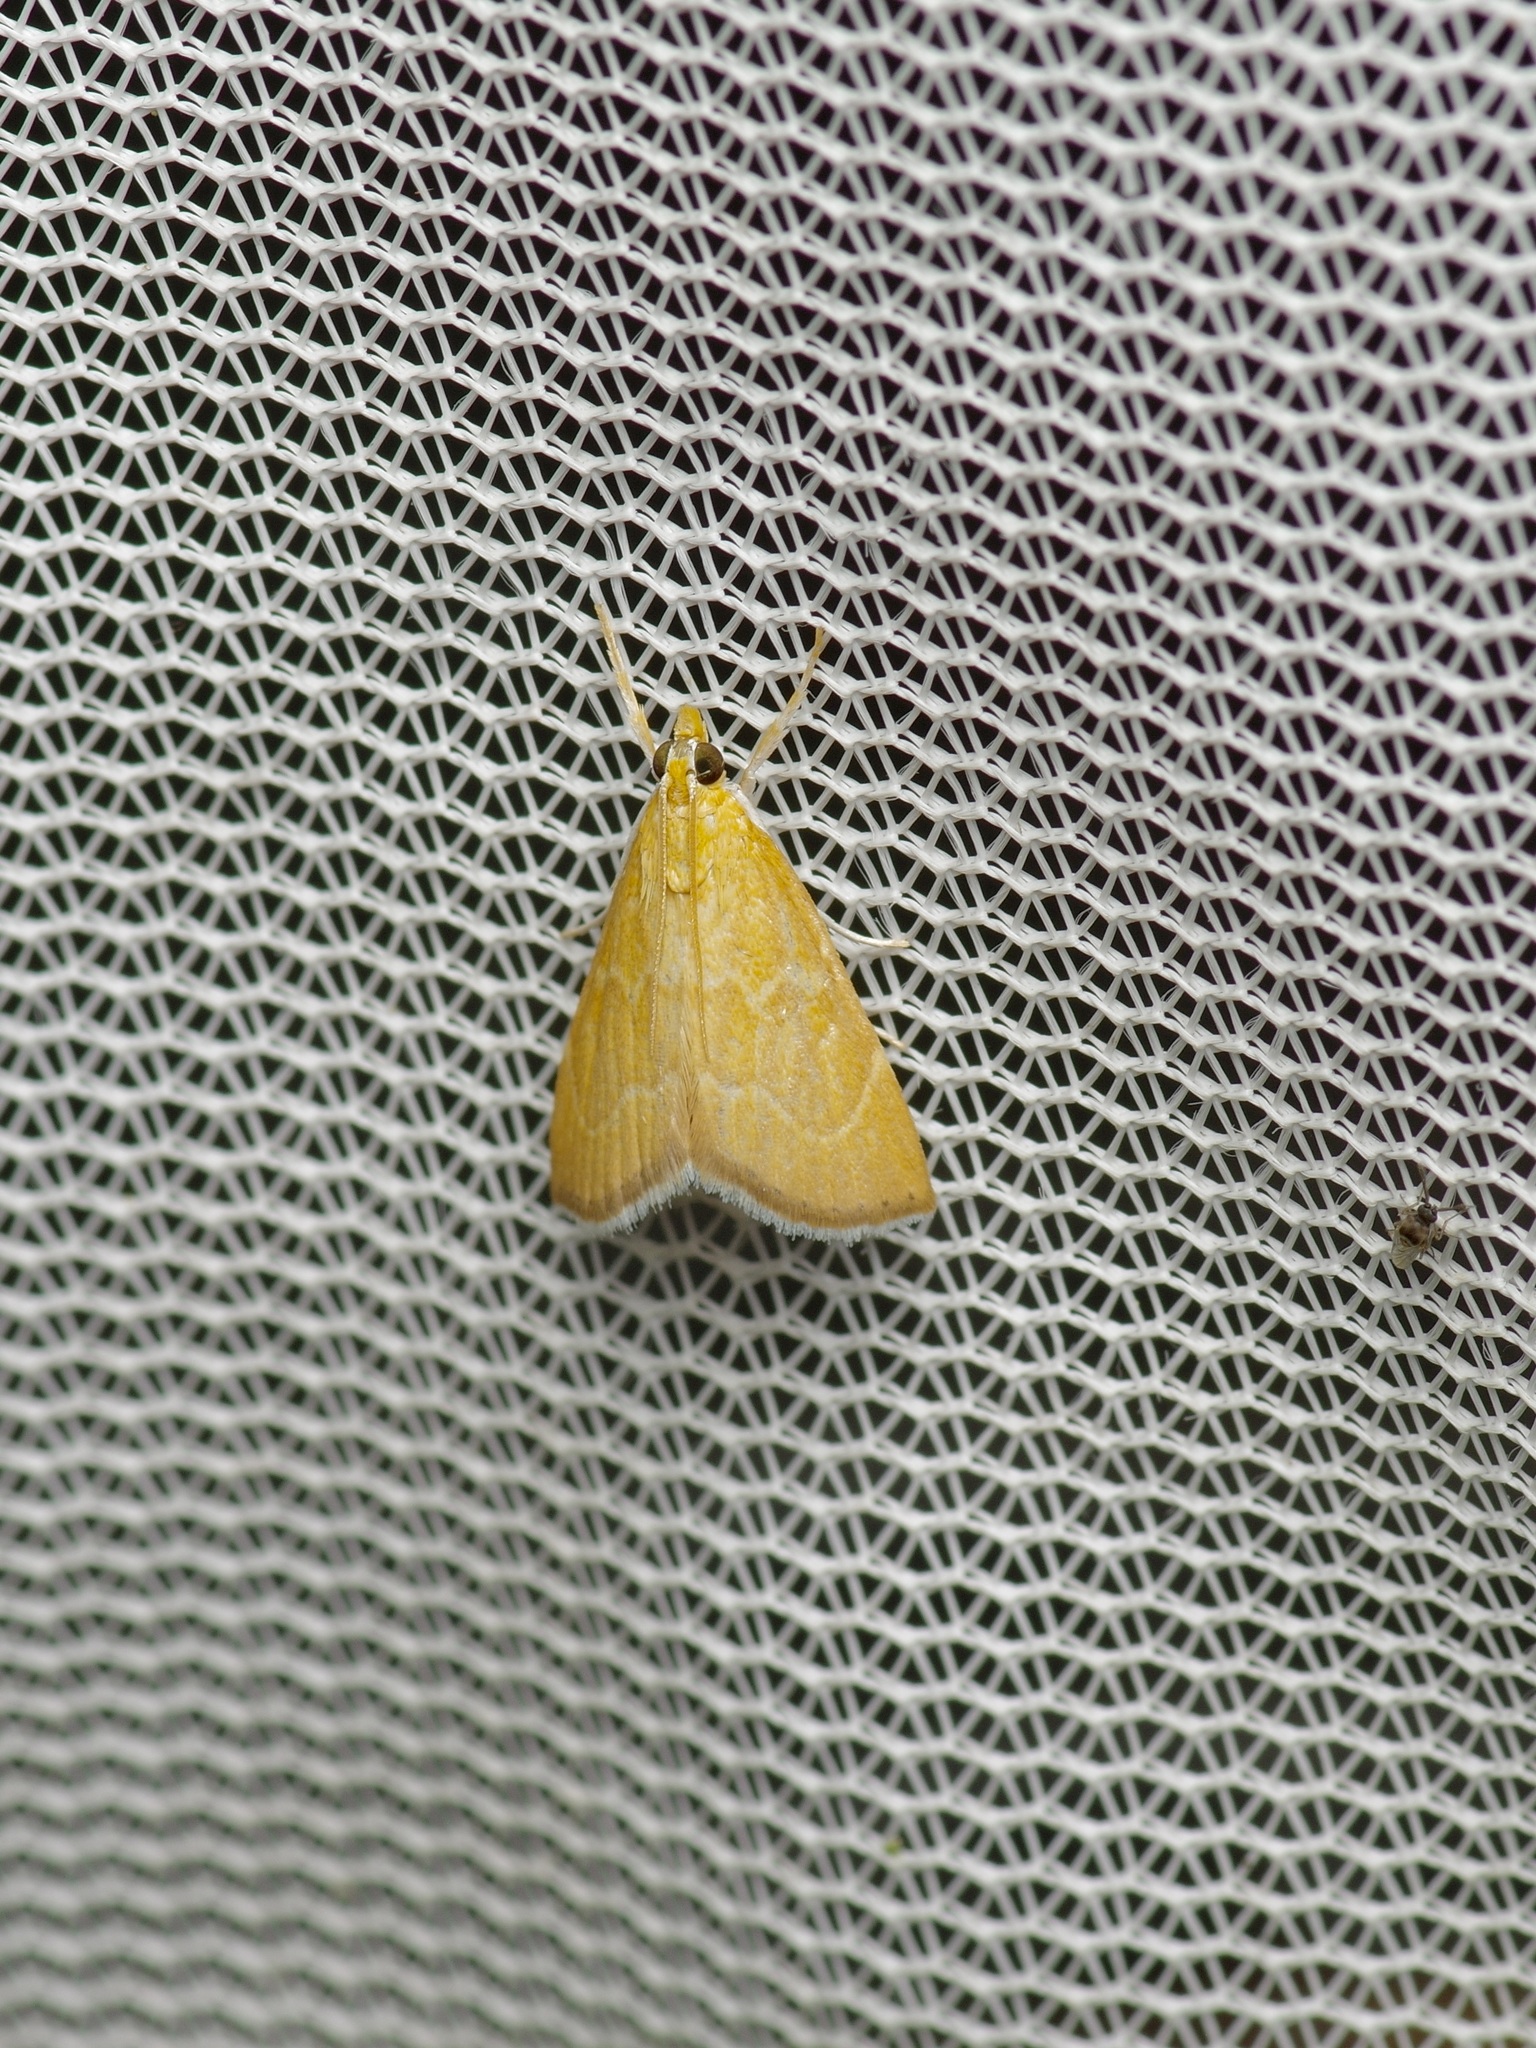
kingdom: Animalia
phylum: Arthropoda
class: Insecta
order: Lepidoptera
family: Crambidae
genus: Glaphyria
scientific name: Glaphyria invisalis
